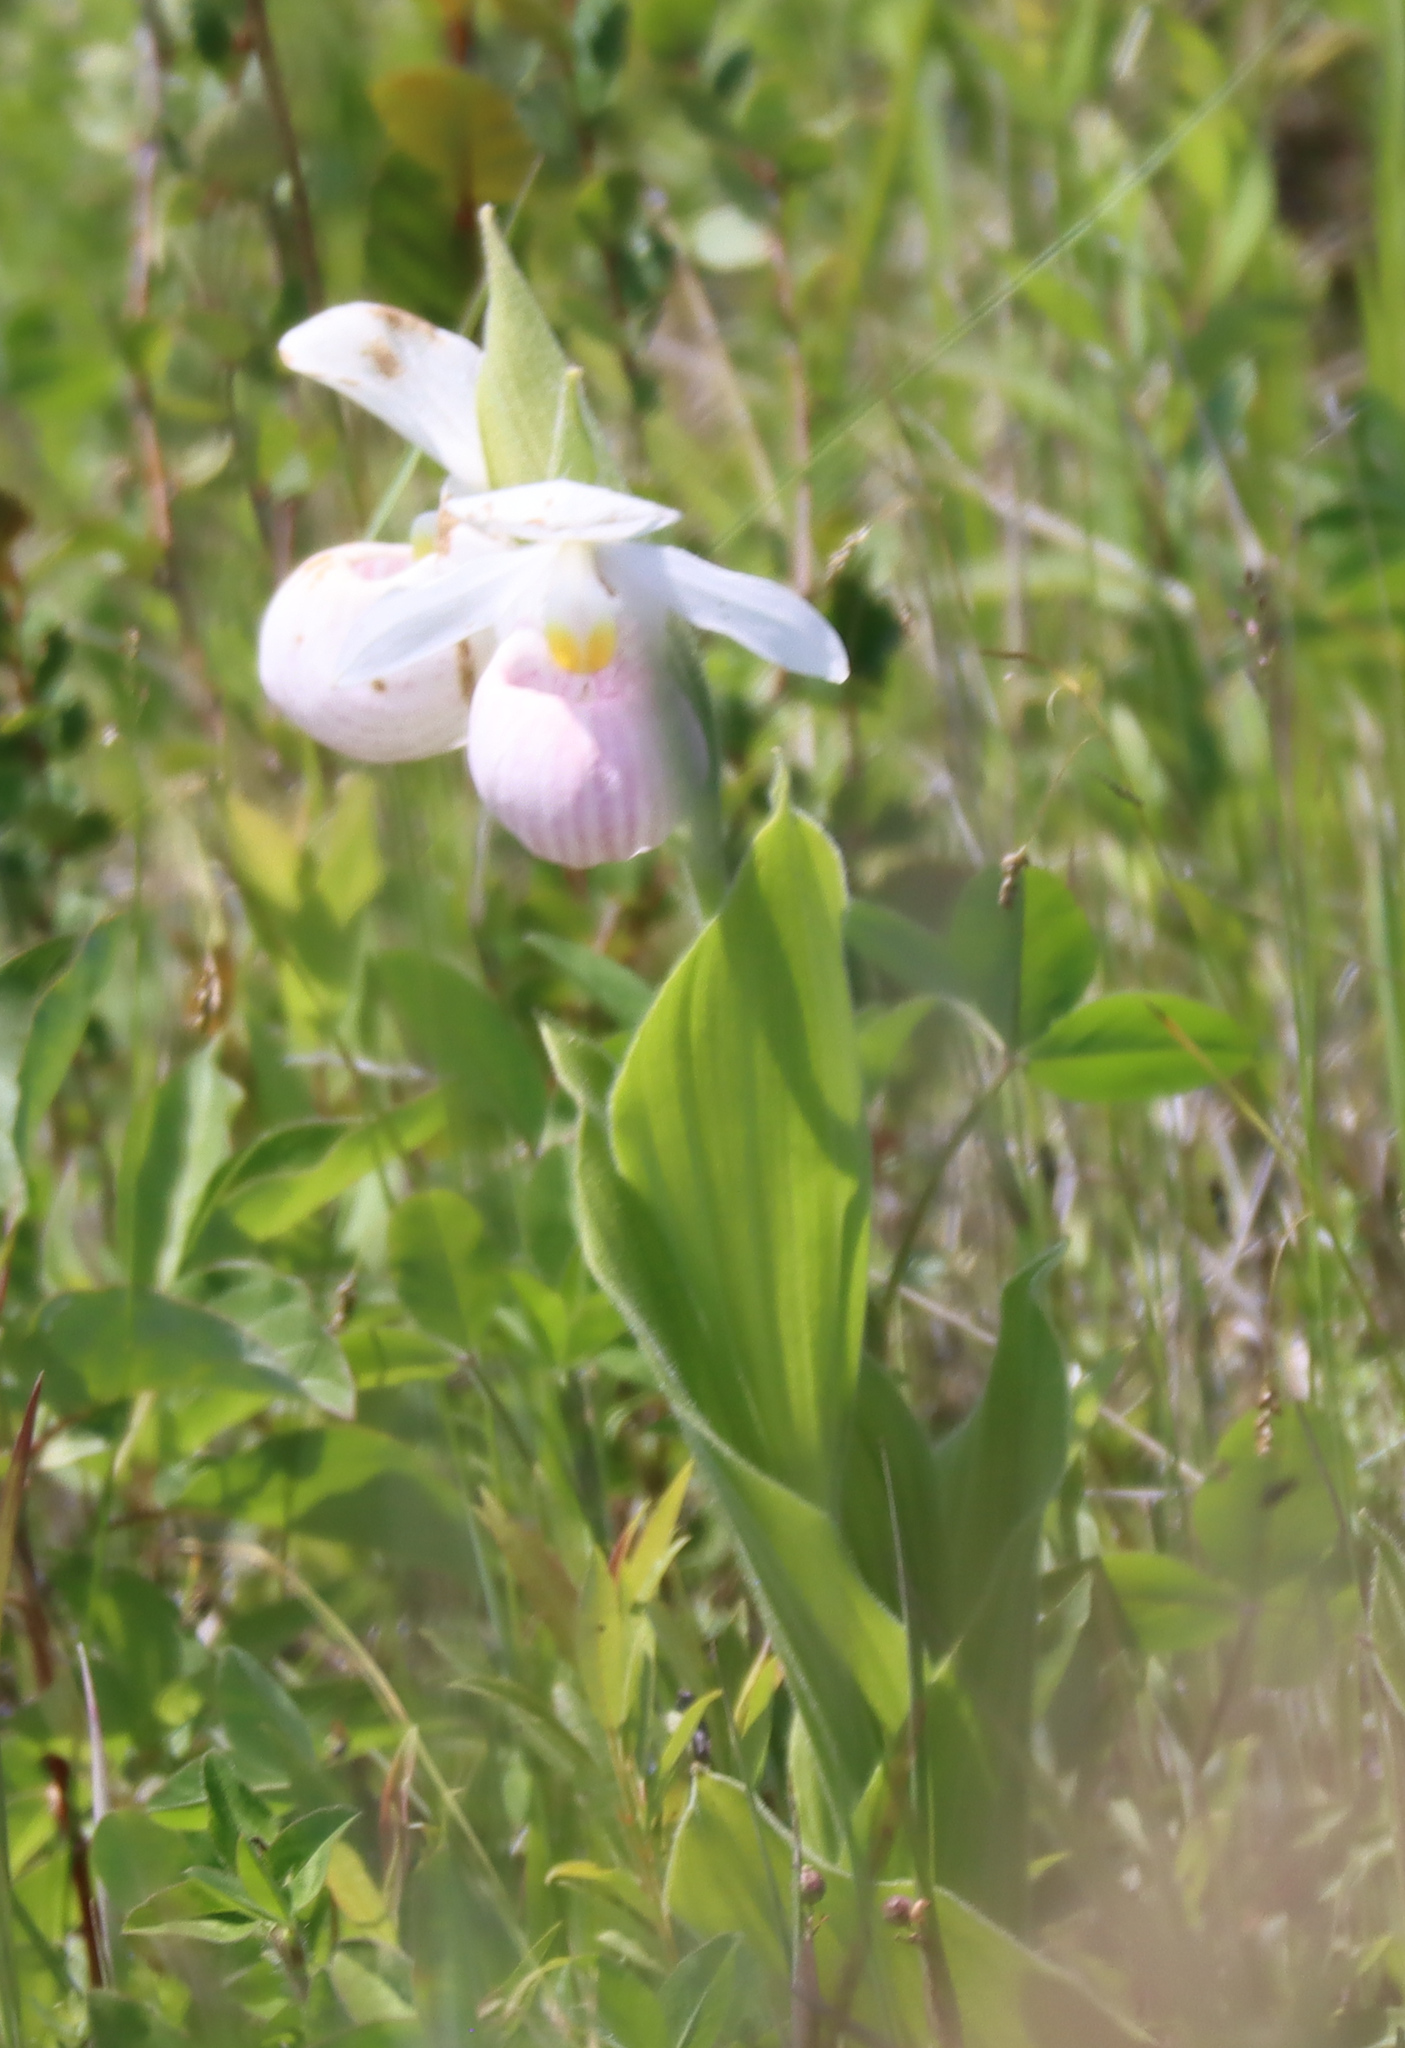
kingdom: Plantae
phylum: Tracheophyta
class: Liliopsida
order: Asparagales
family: Orchidaceae
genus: Cypripedium
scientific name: Cypripedium reginae
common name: Queen lady's-slipper
